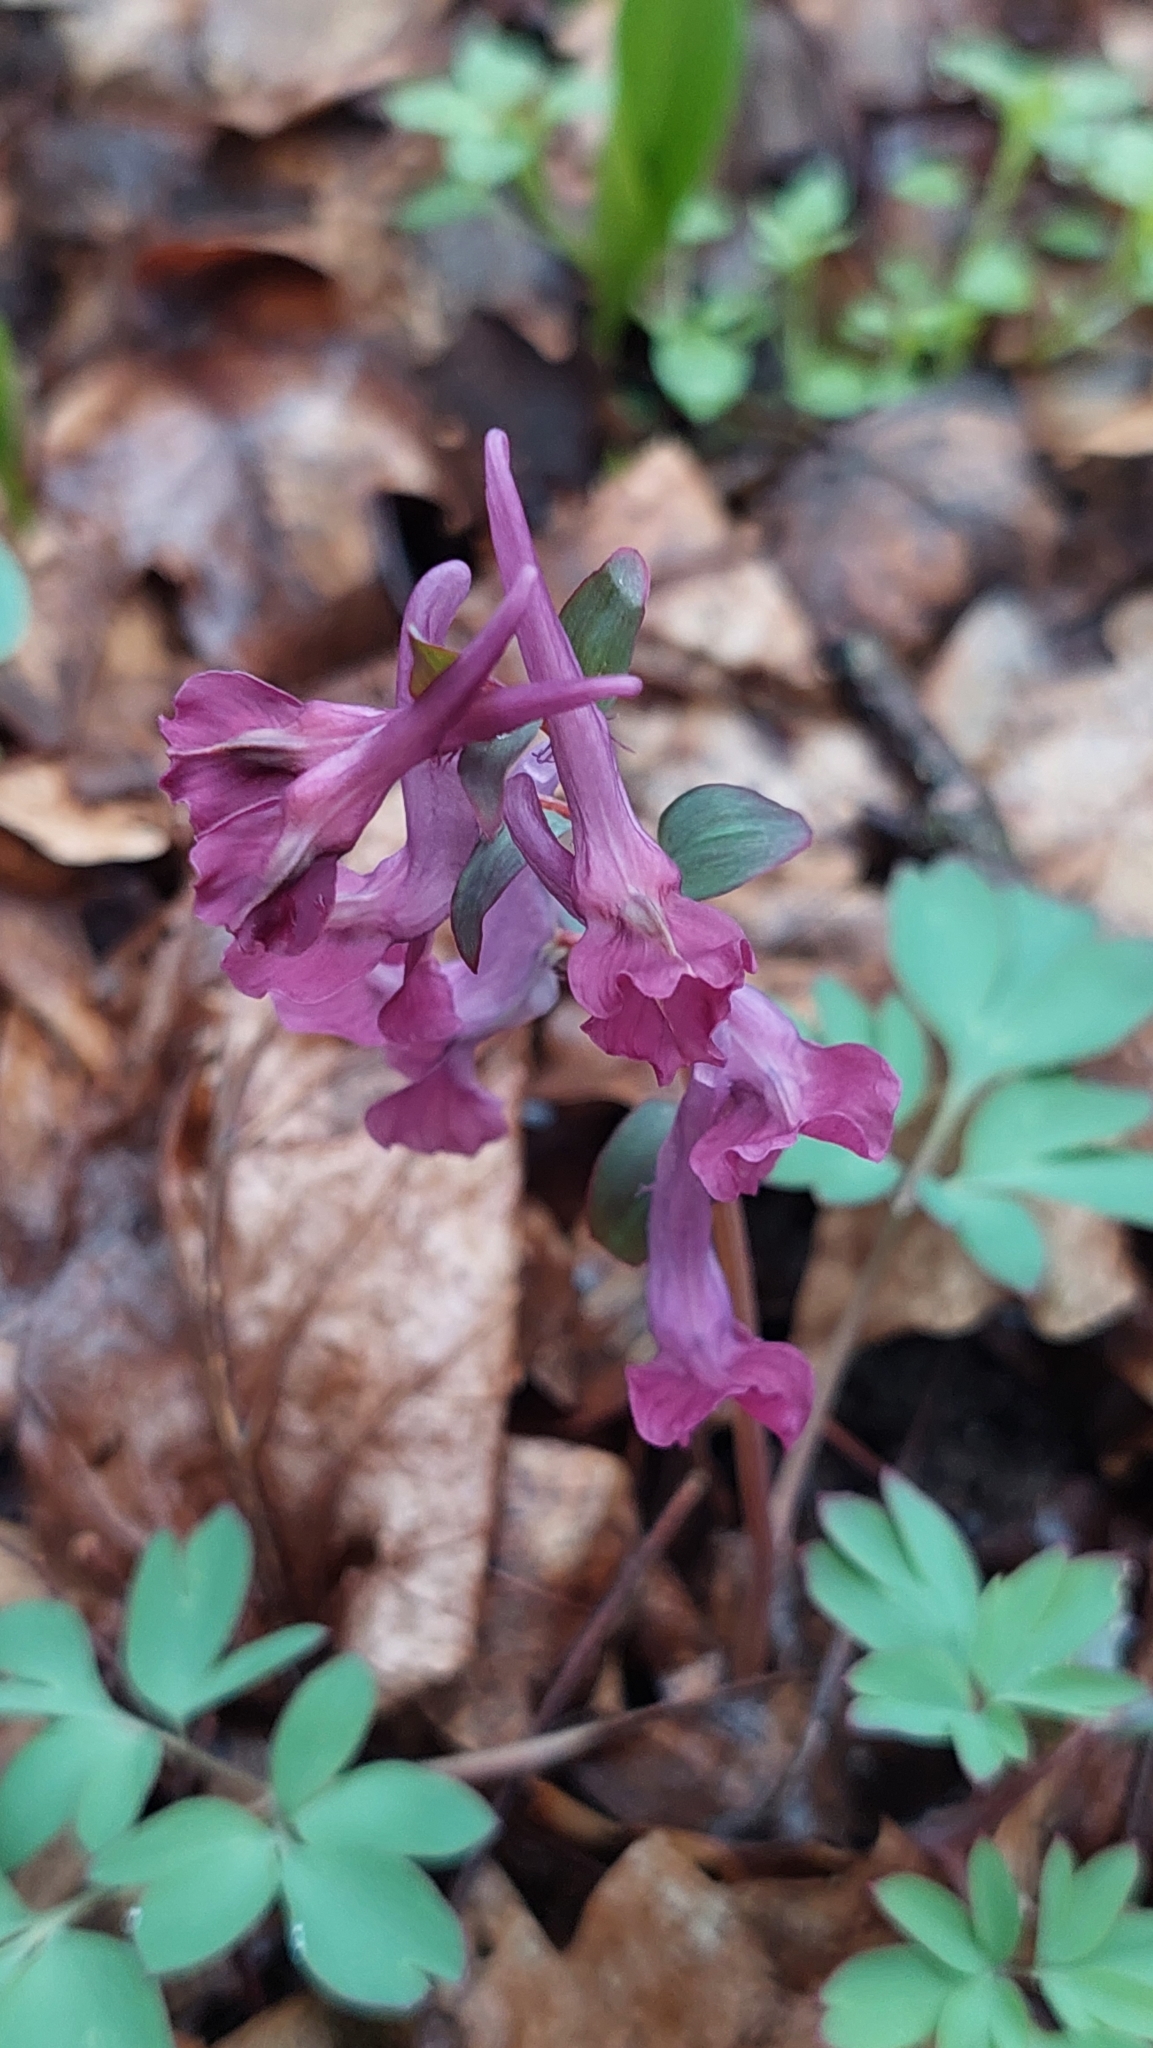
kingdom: Plantae
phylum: Tracheophyta
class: Magnoliopsida
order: Ranunculales
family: Papaveraceae
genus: Corydalis
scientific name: Corydalis caucasica
